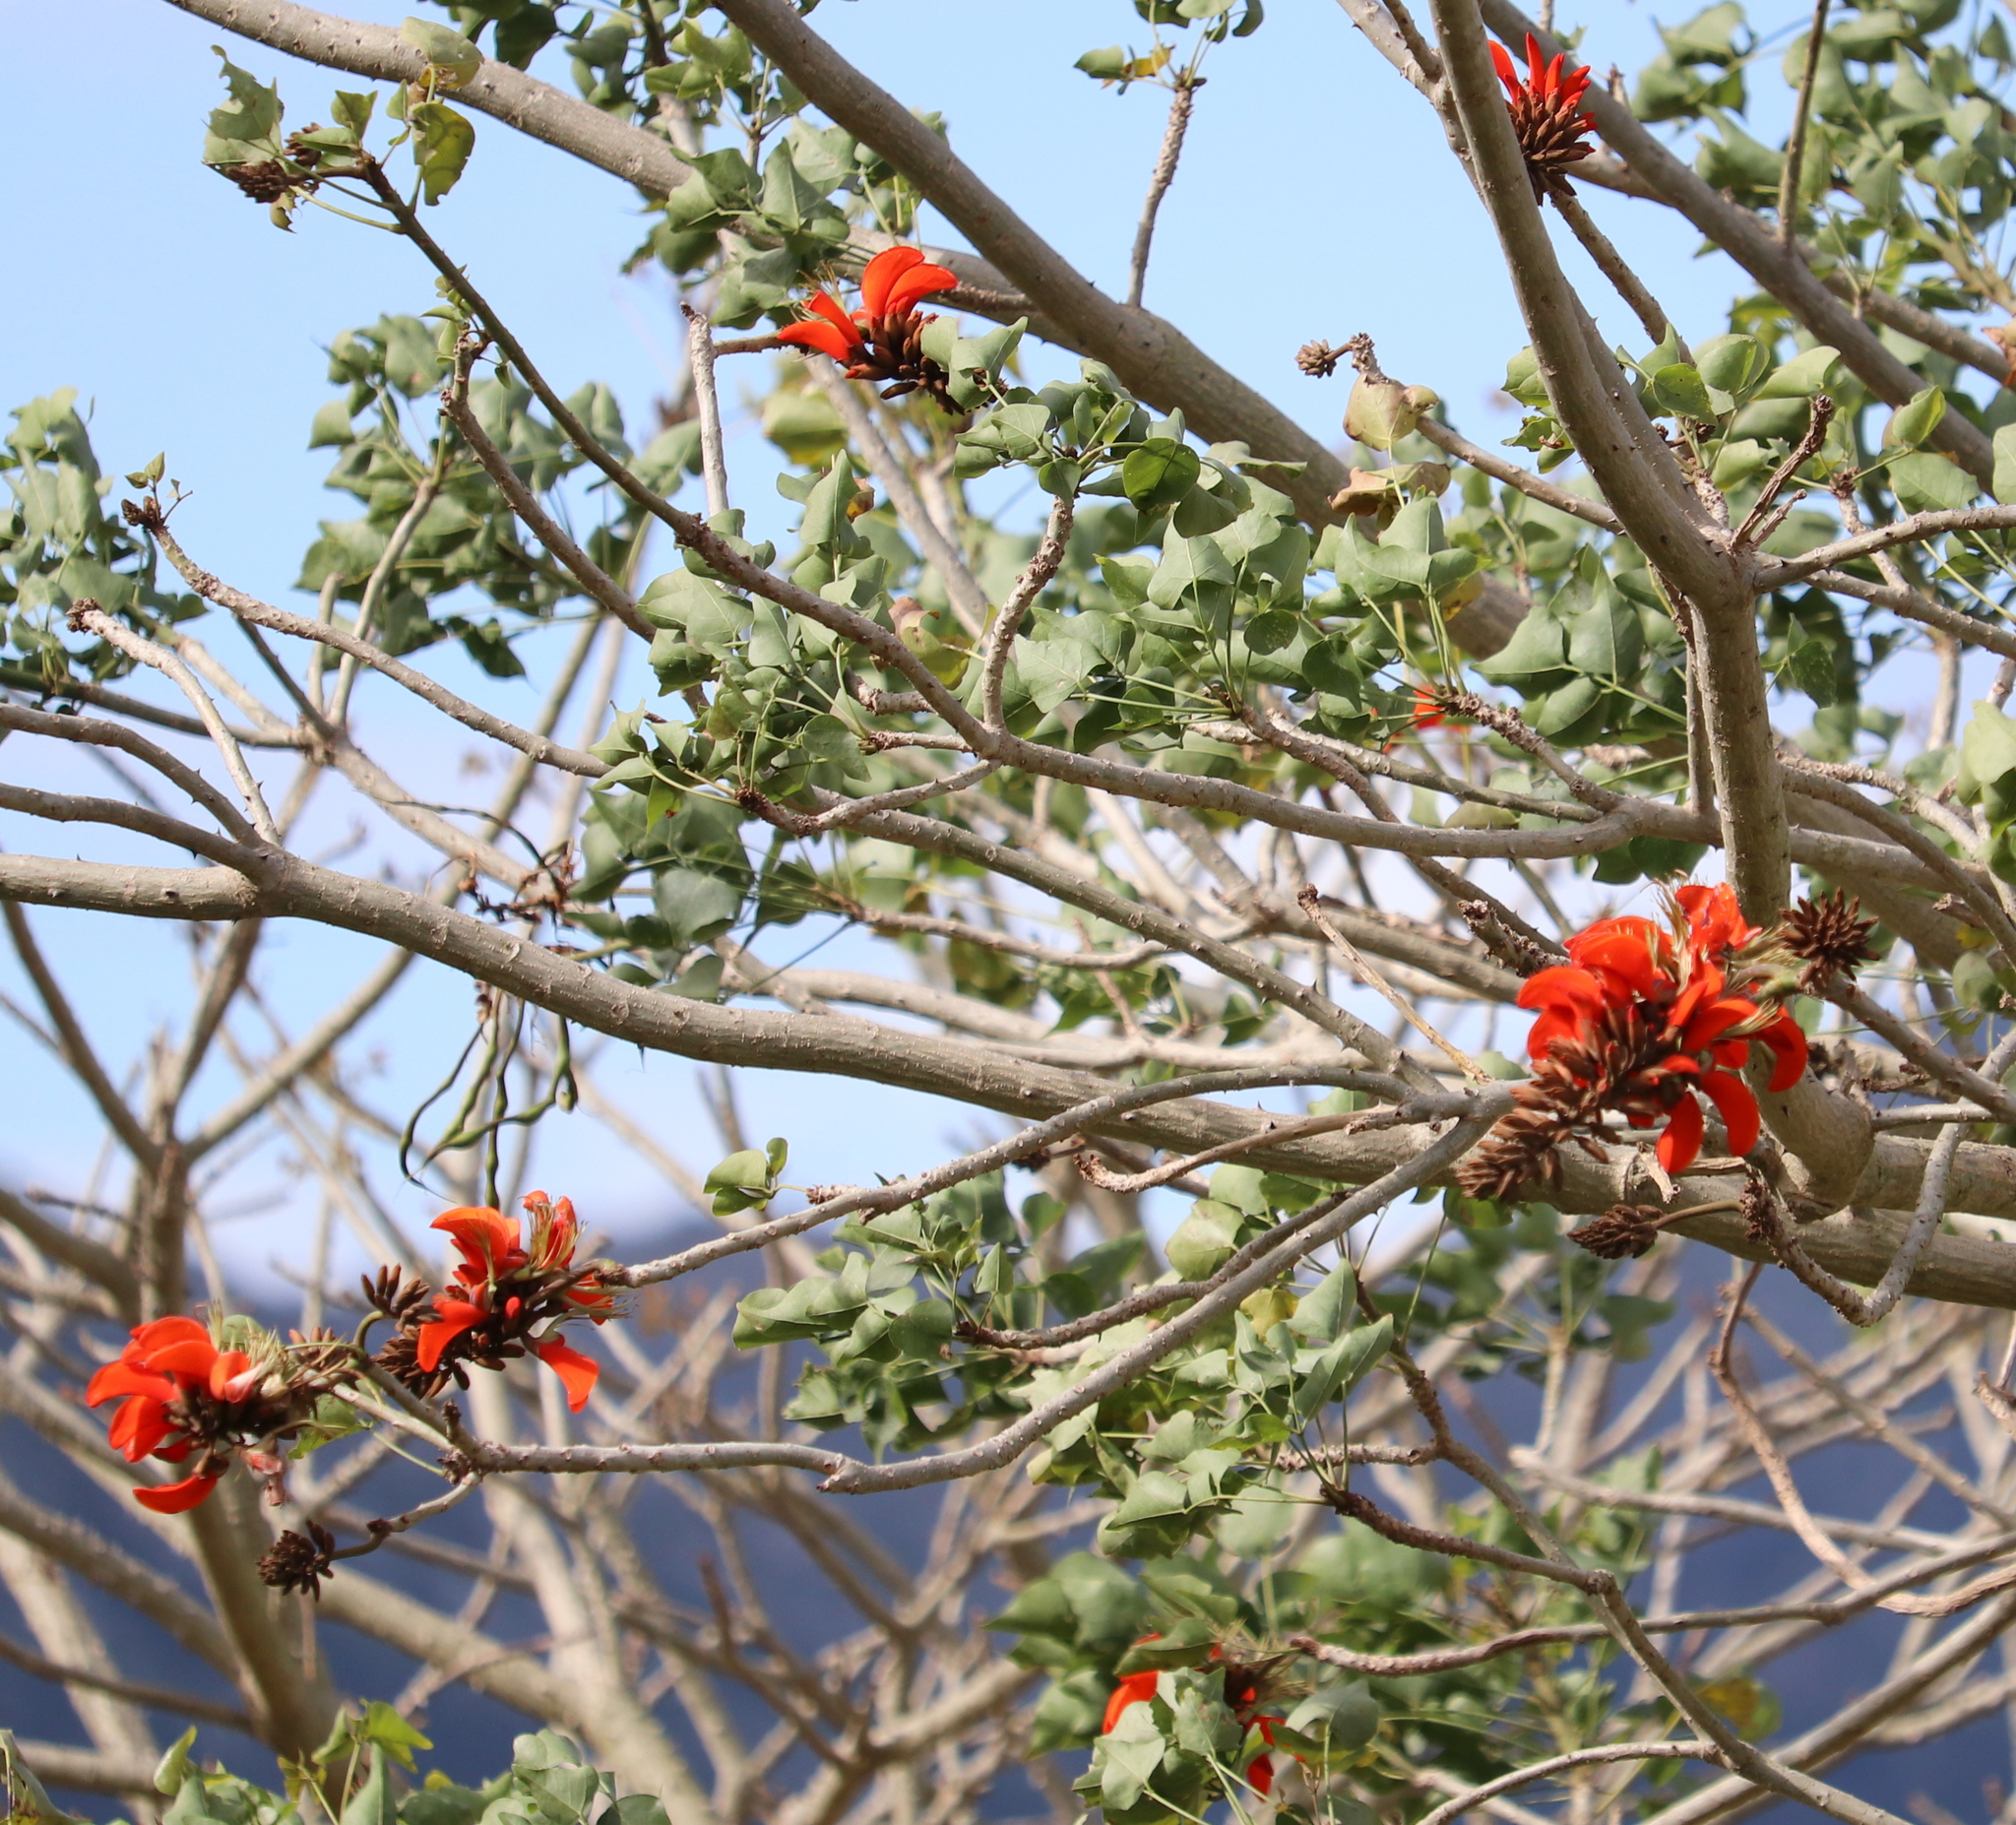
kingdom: Plantae
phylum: Tracheophyta
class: Magnoliopsida
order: Fabales
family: Fabaceae
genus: Erythrina
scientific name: Erythrina caffra
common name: Coast coral tree
